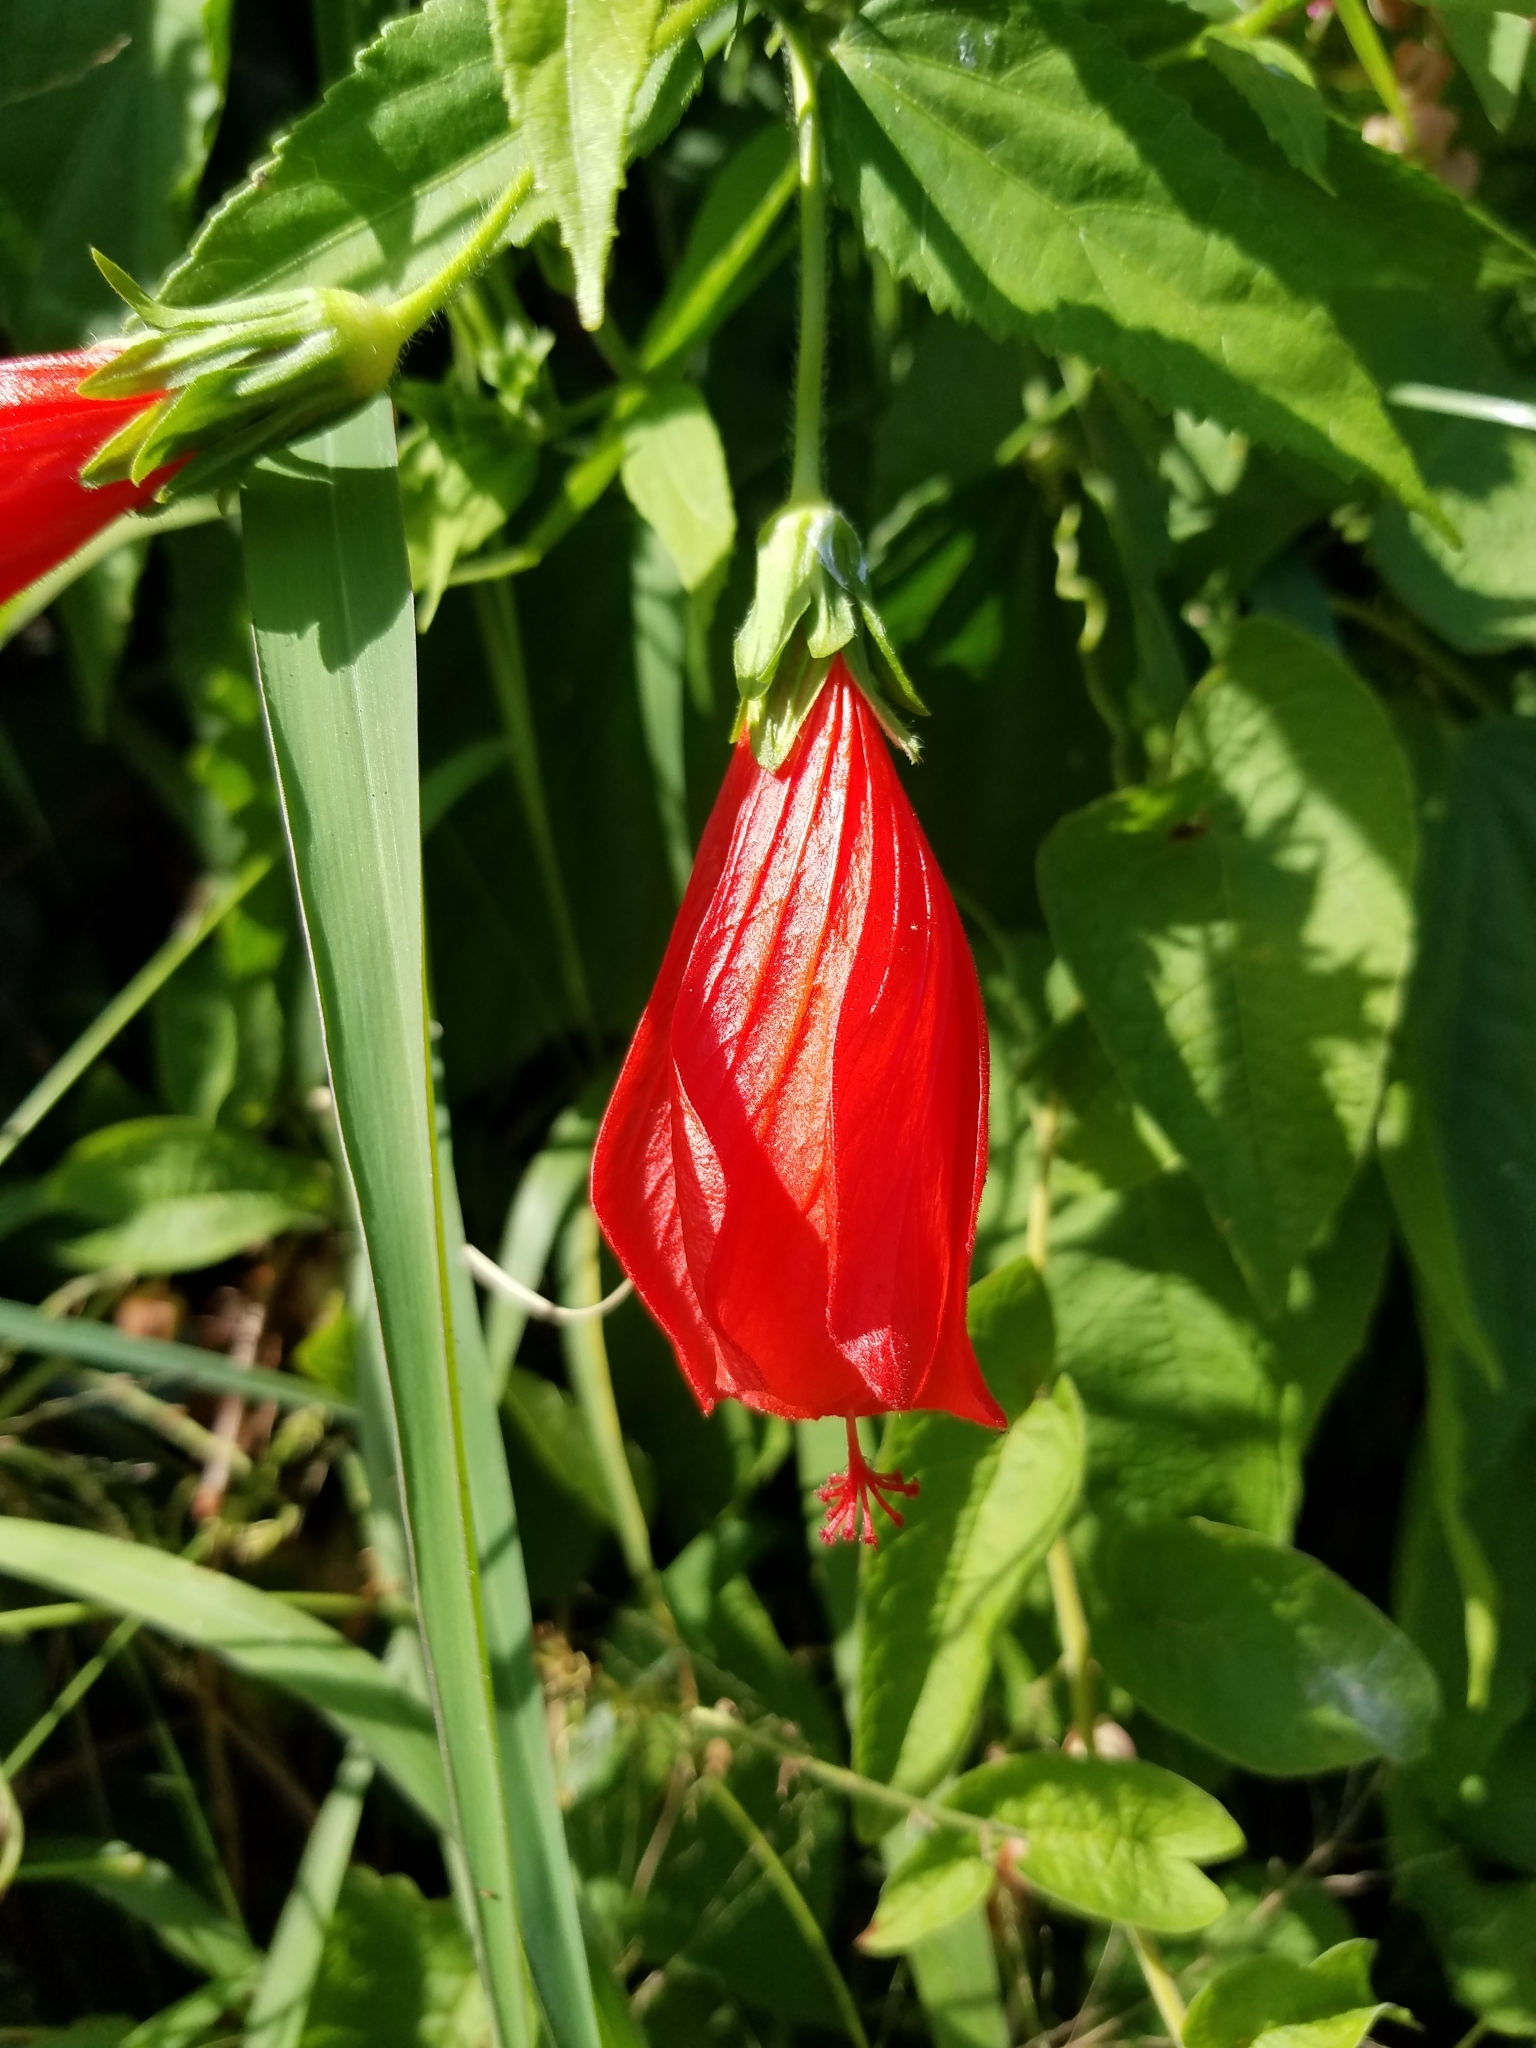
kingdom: Plantae
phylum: Tracheophyta
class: Magnoliopsida
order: Malvales
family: Malvaceae
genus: Malvaviscus
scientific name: Malvaviscus penduliflorus
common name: Mazapan
